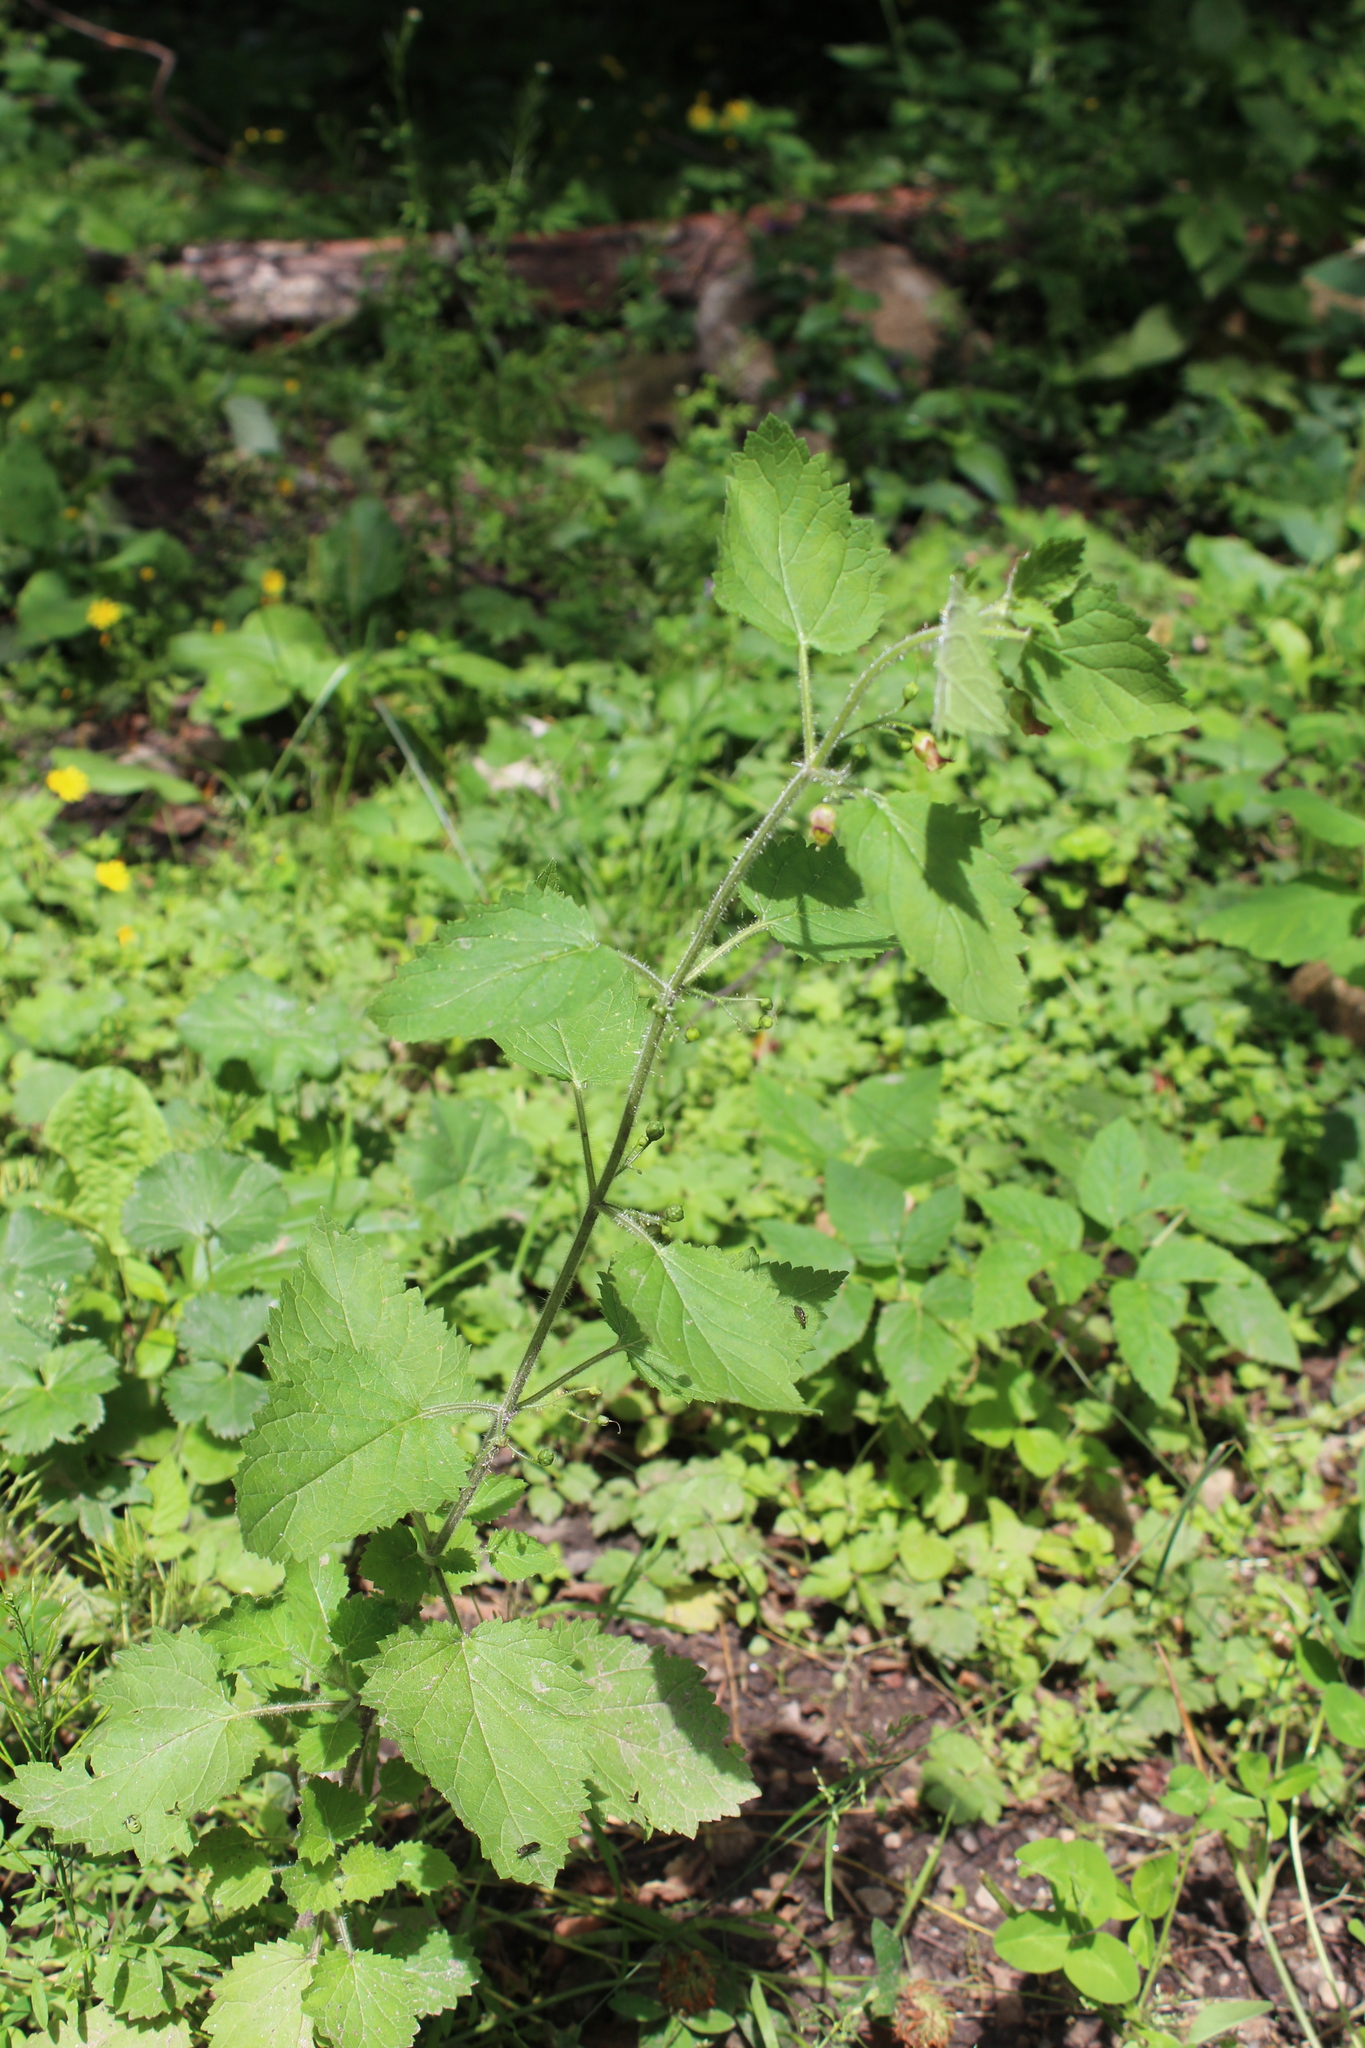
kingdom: Plantae
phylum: Tracheophyta
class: Magnoliopsida
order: Lamiales
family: Scrophulariaceae
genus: Scrophularia
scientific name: Scrophularia divaricata
